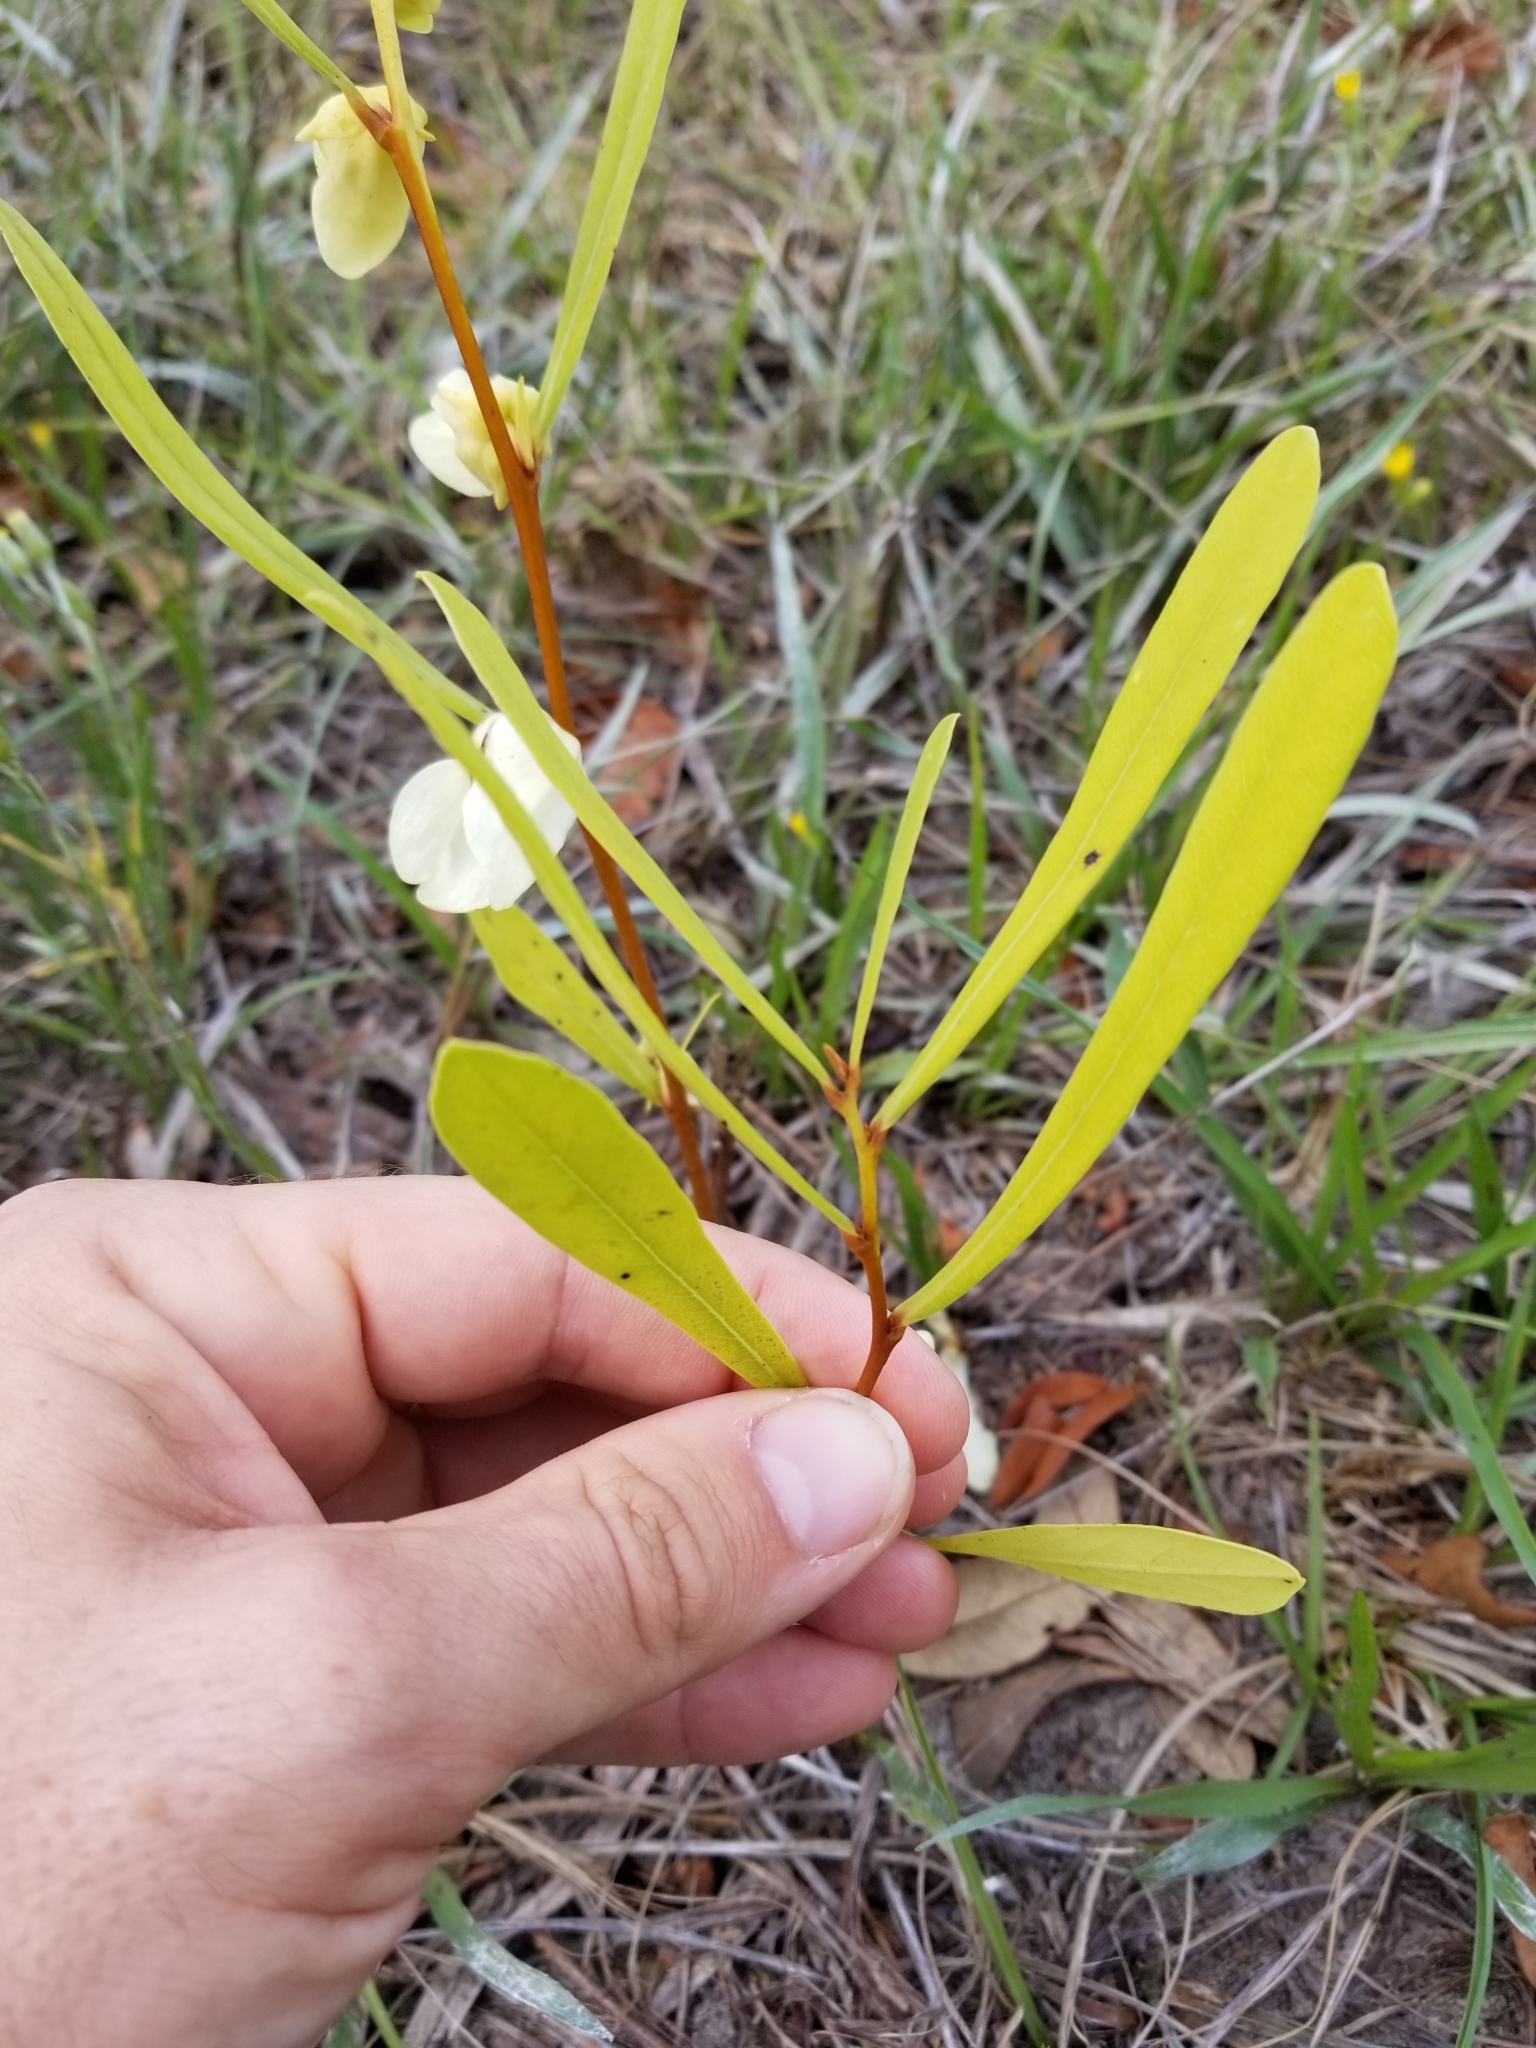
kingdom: Plantae
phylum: Tracheophyta
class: Magnoliopsida
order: Magnoliales
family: Annonaceae
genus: Asimina
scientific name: Asimina longifolia
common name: Polecatbush
